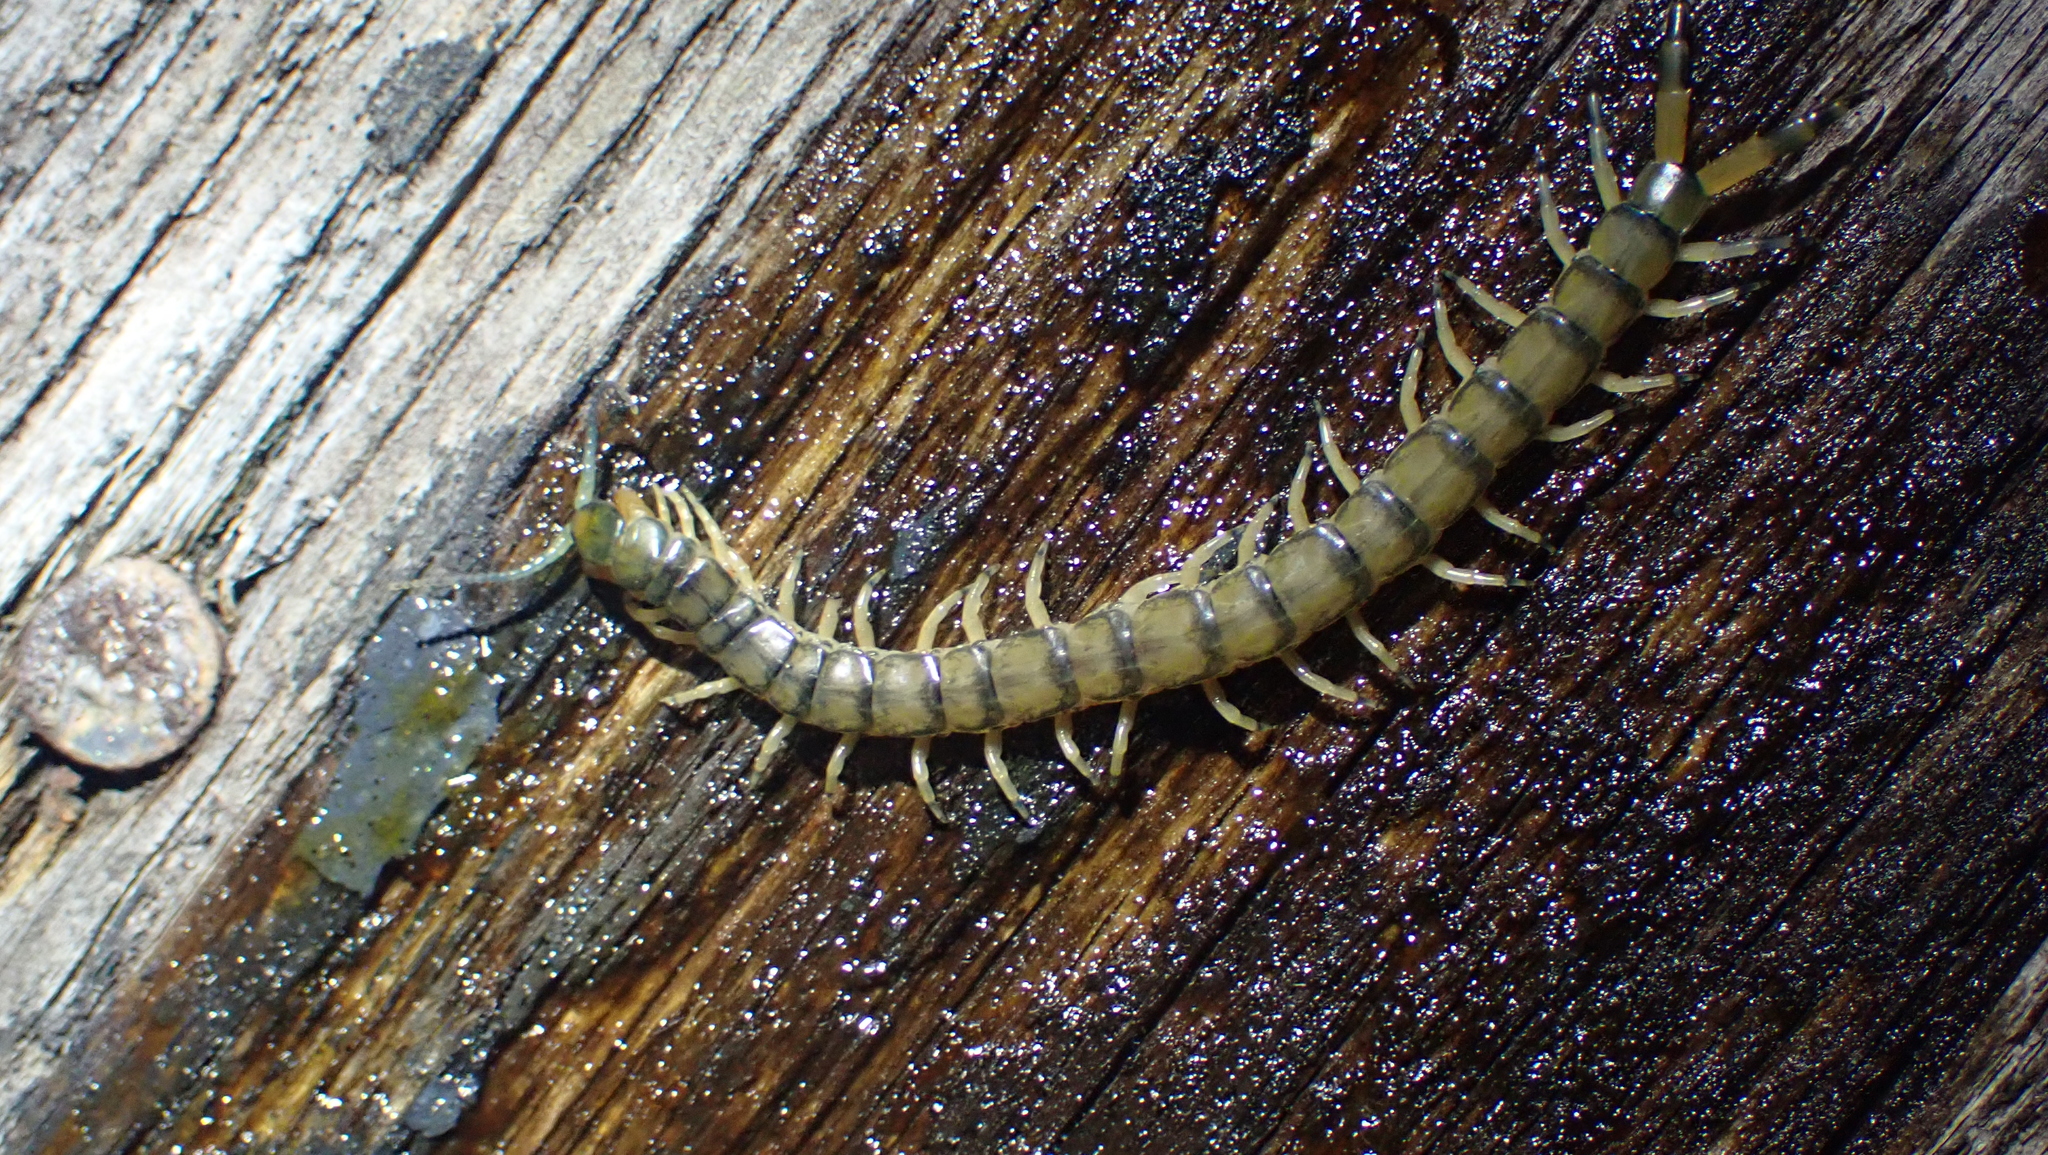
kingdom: Animalia
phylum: Arthropoda
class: Chilopoda
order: Scolopendromorpha
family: Scolopendridae
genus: Hemiscolopendra
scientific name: Hemiscolopendra marginata
